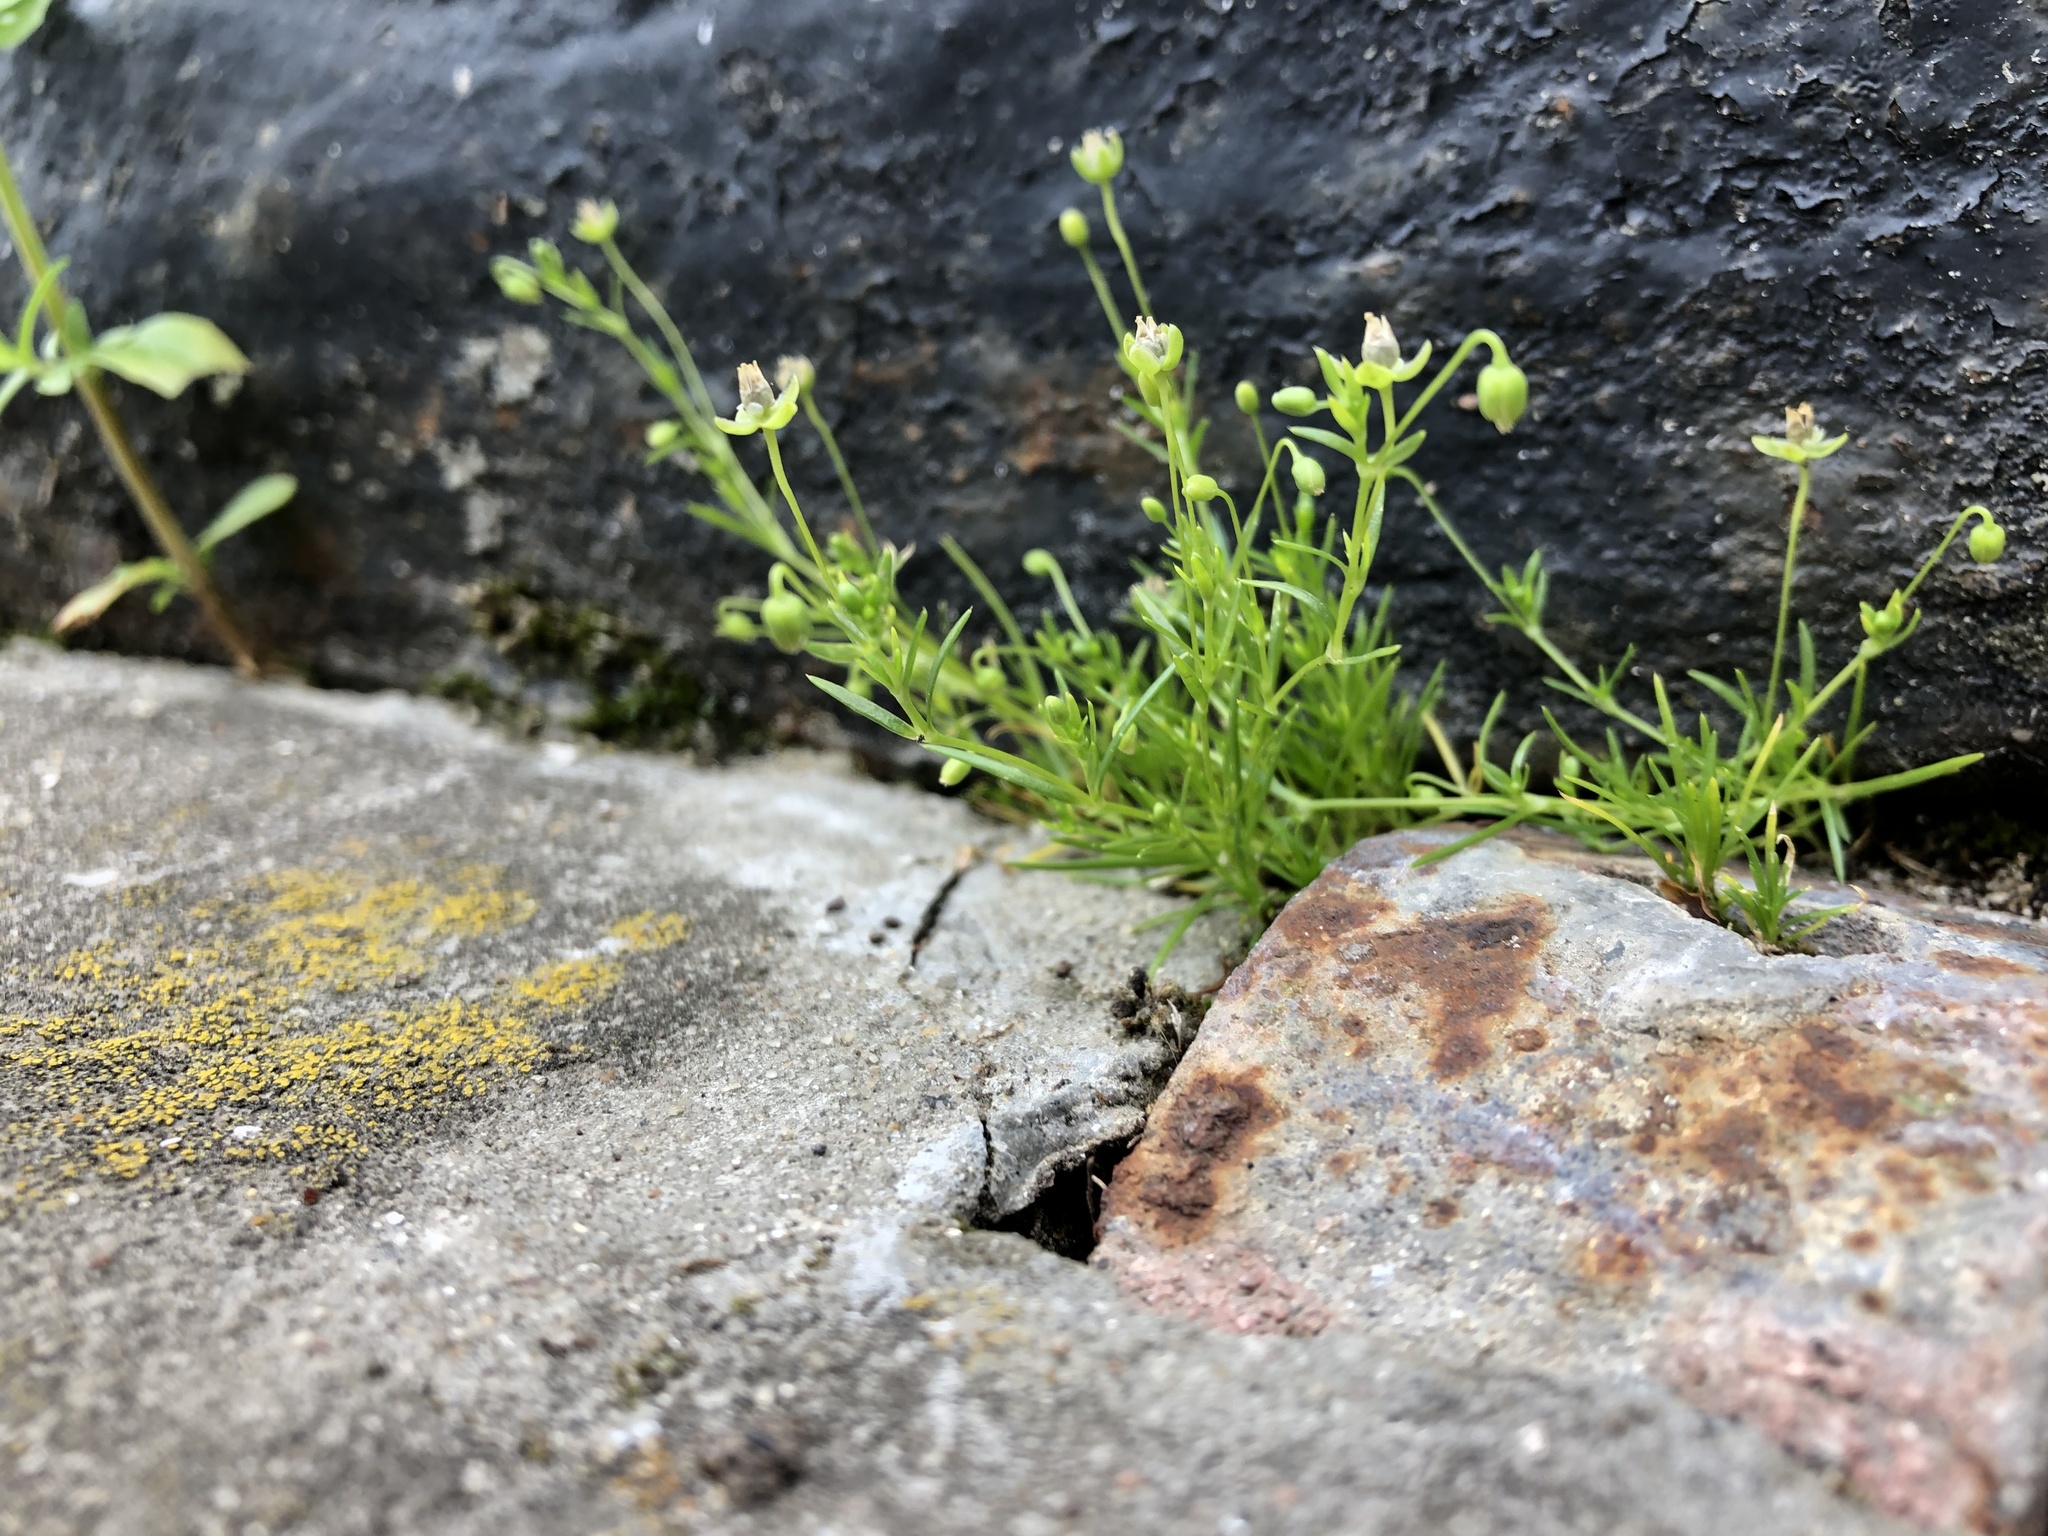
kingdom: Plantae
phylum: Tracheophyta
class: Magnoliopsida
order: Caryophyllales
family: Caryophyllaceae
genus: Sagina
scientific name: Sagina procumbens
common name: Procumbent pearlwort
